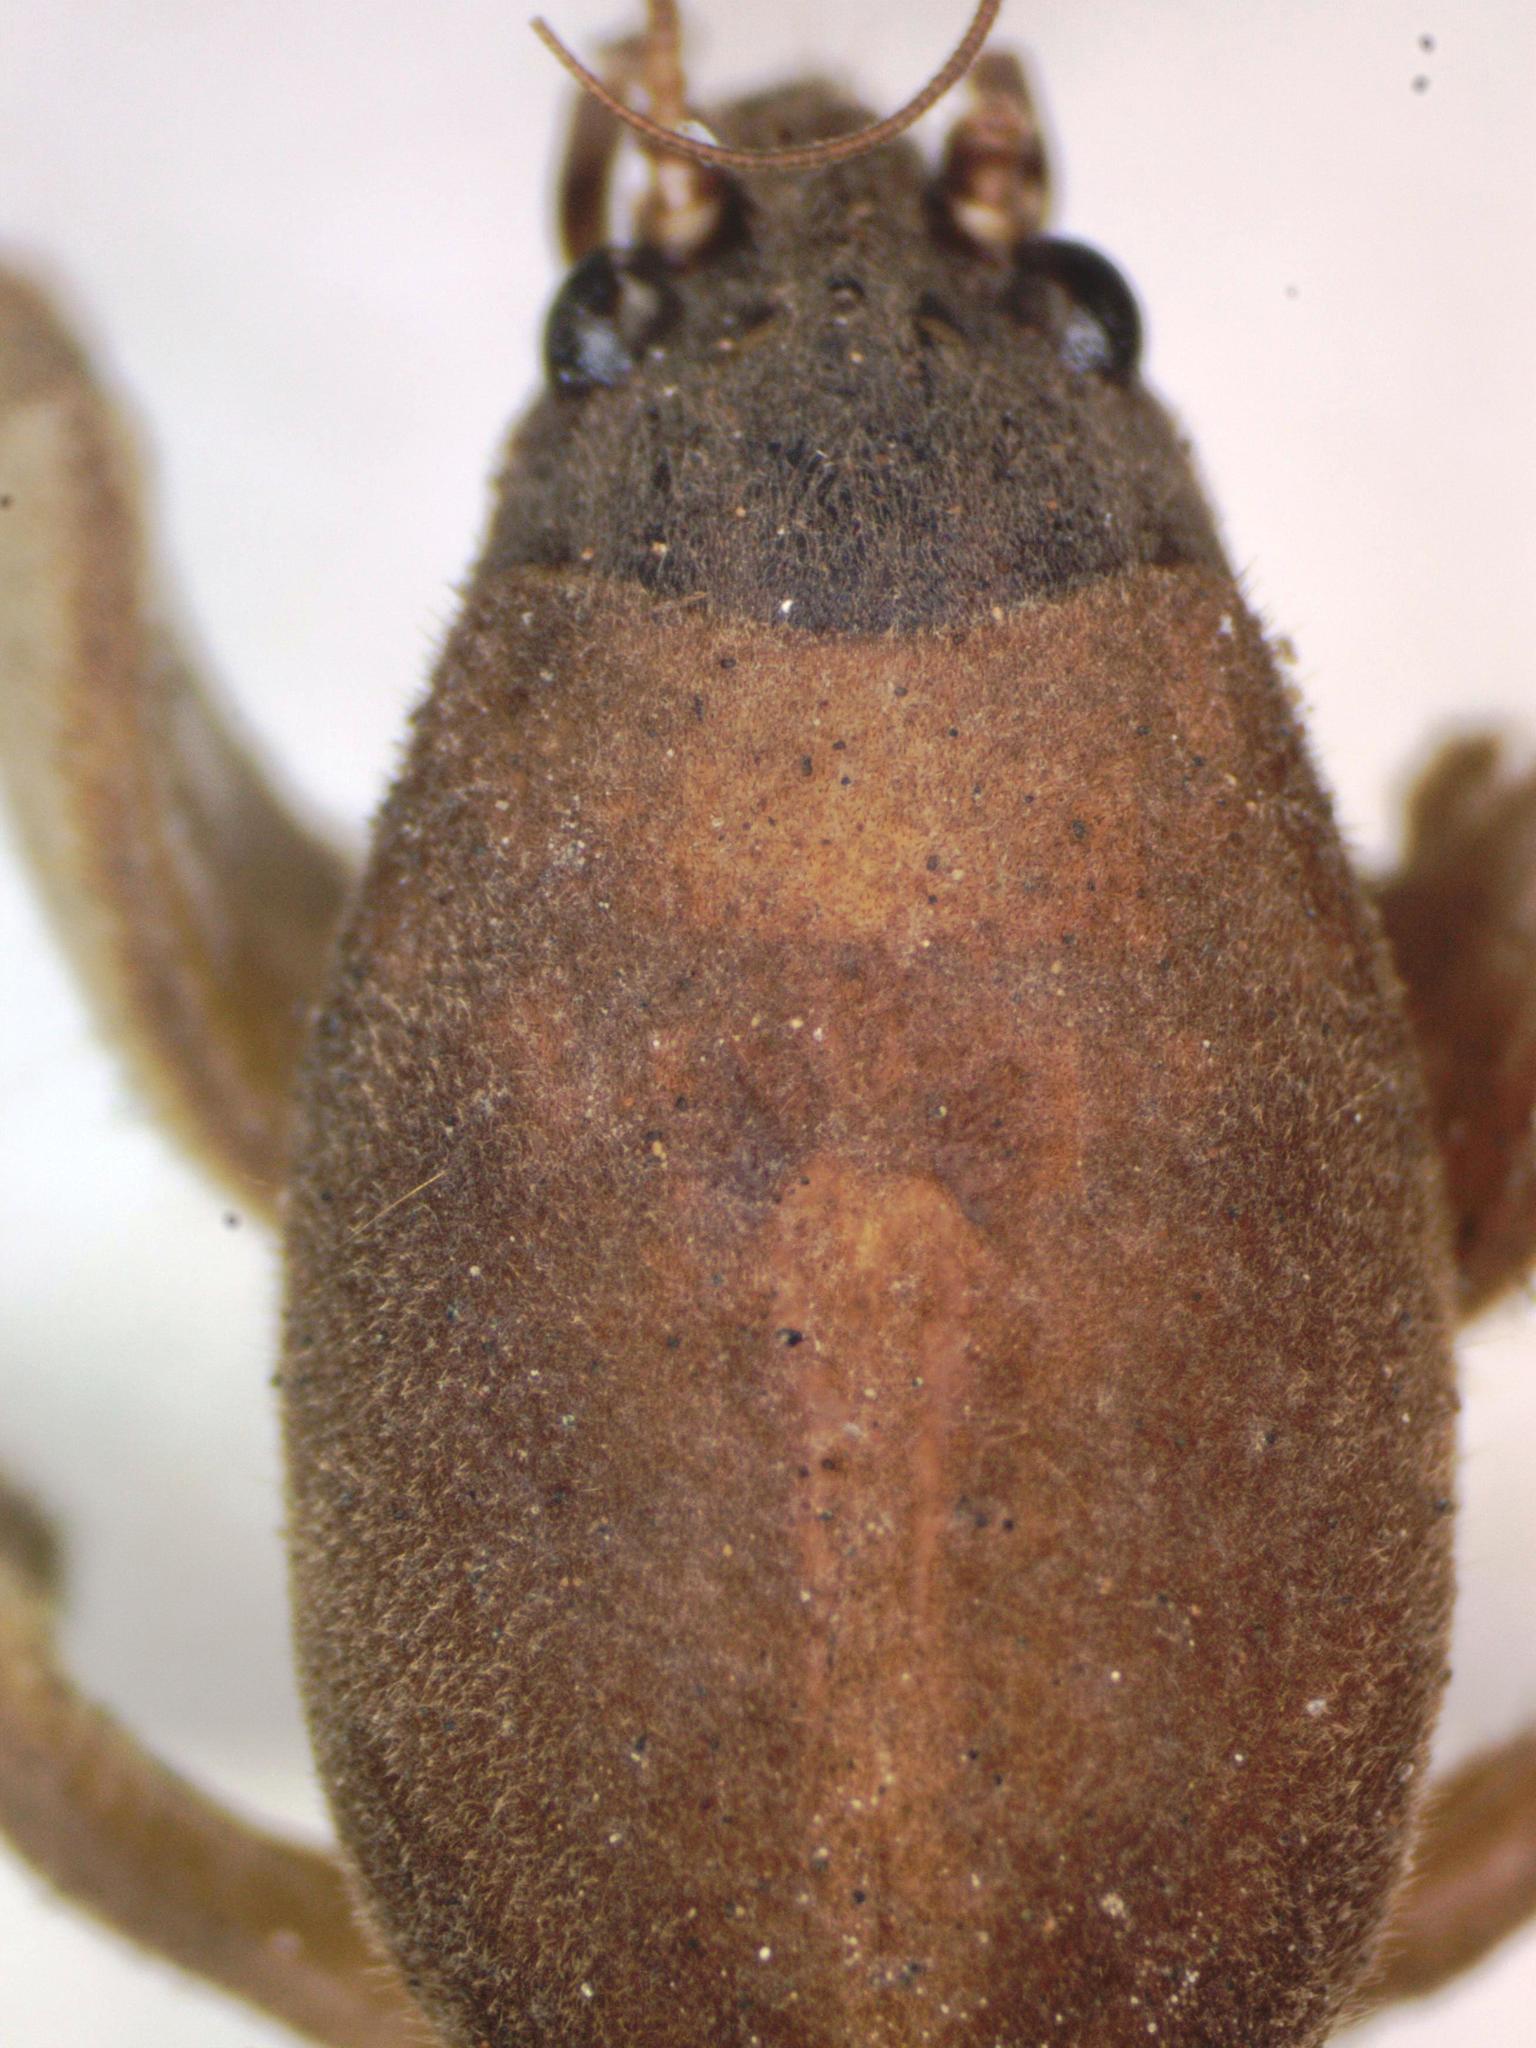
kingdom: Animalia
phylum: Arthropoda
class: Insecta
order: Orthoptera
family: Gryllotalpidae
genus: Neocurtilla
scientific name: Neocurtilla hexadactyla
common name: Northern mole cricket
